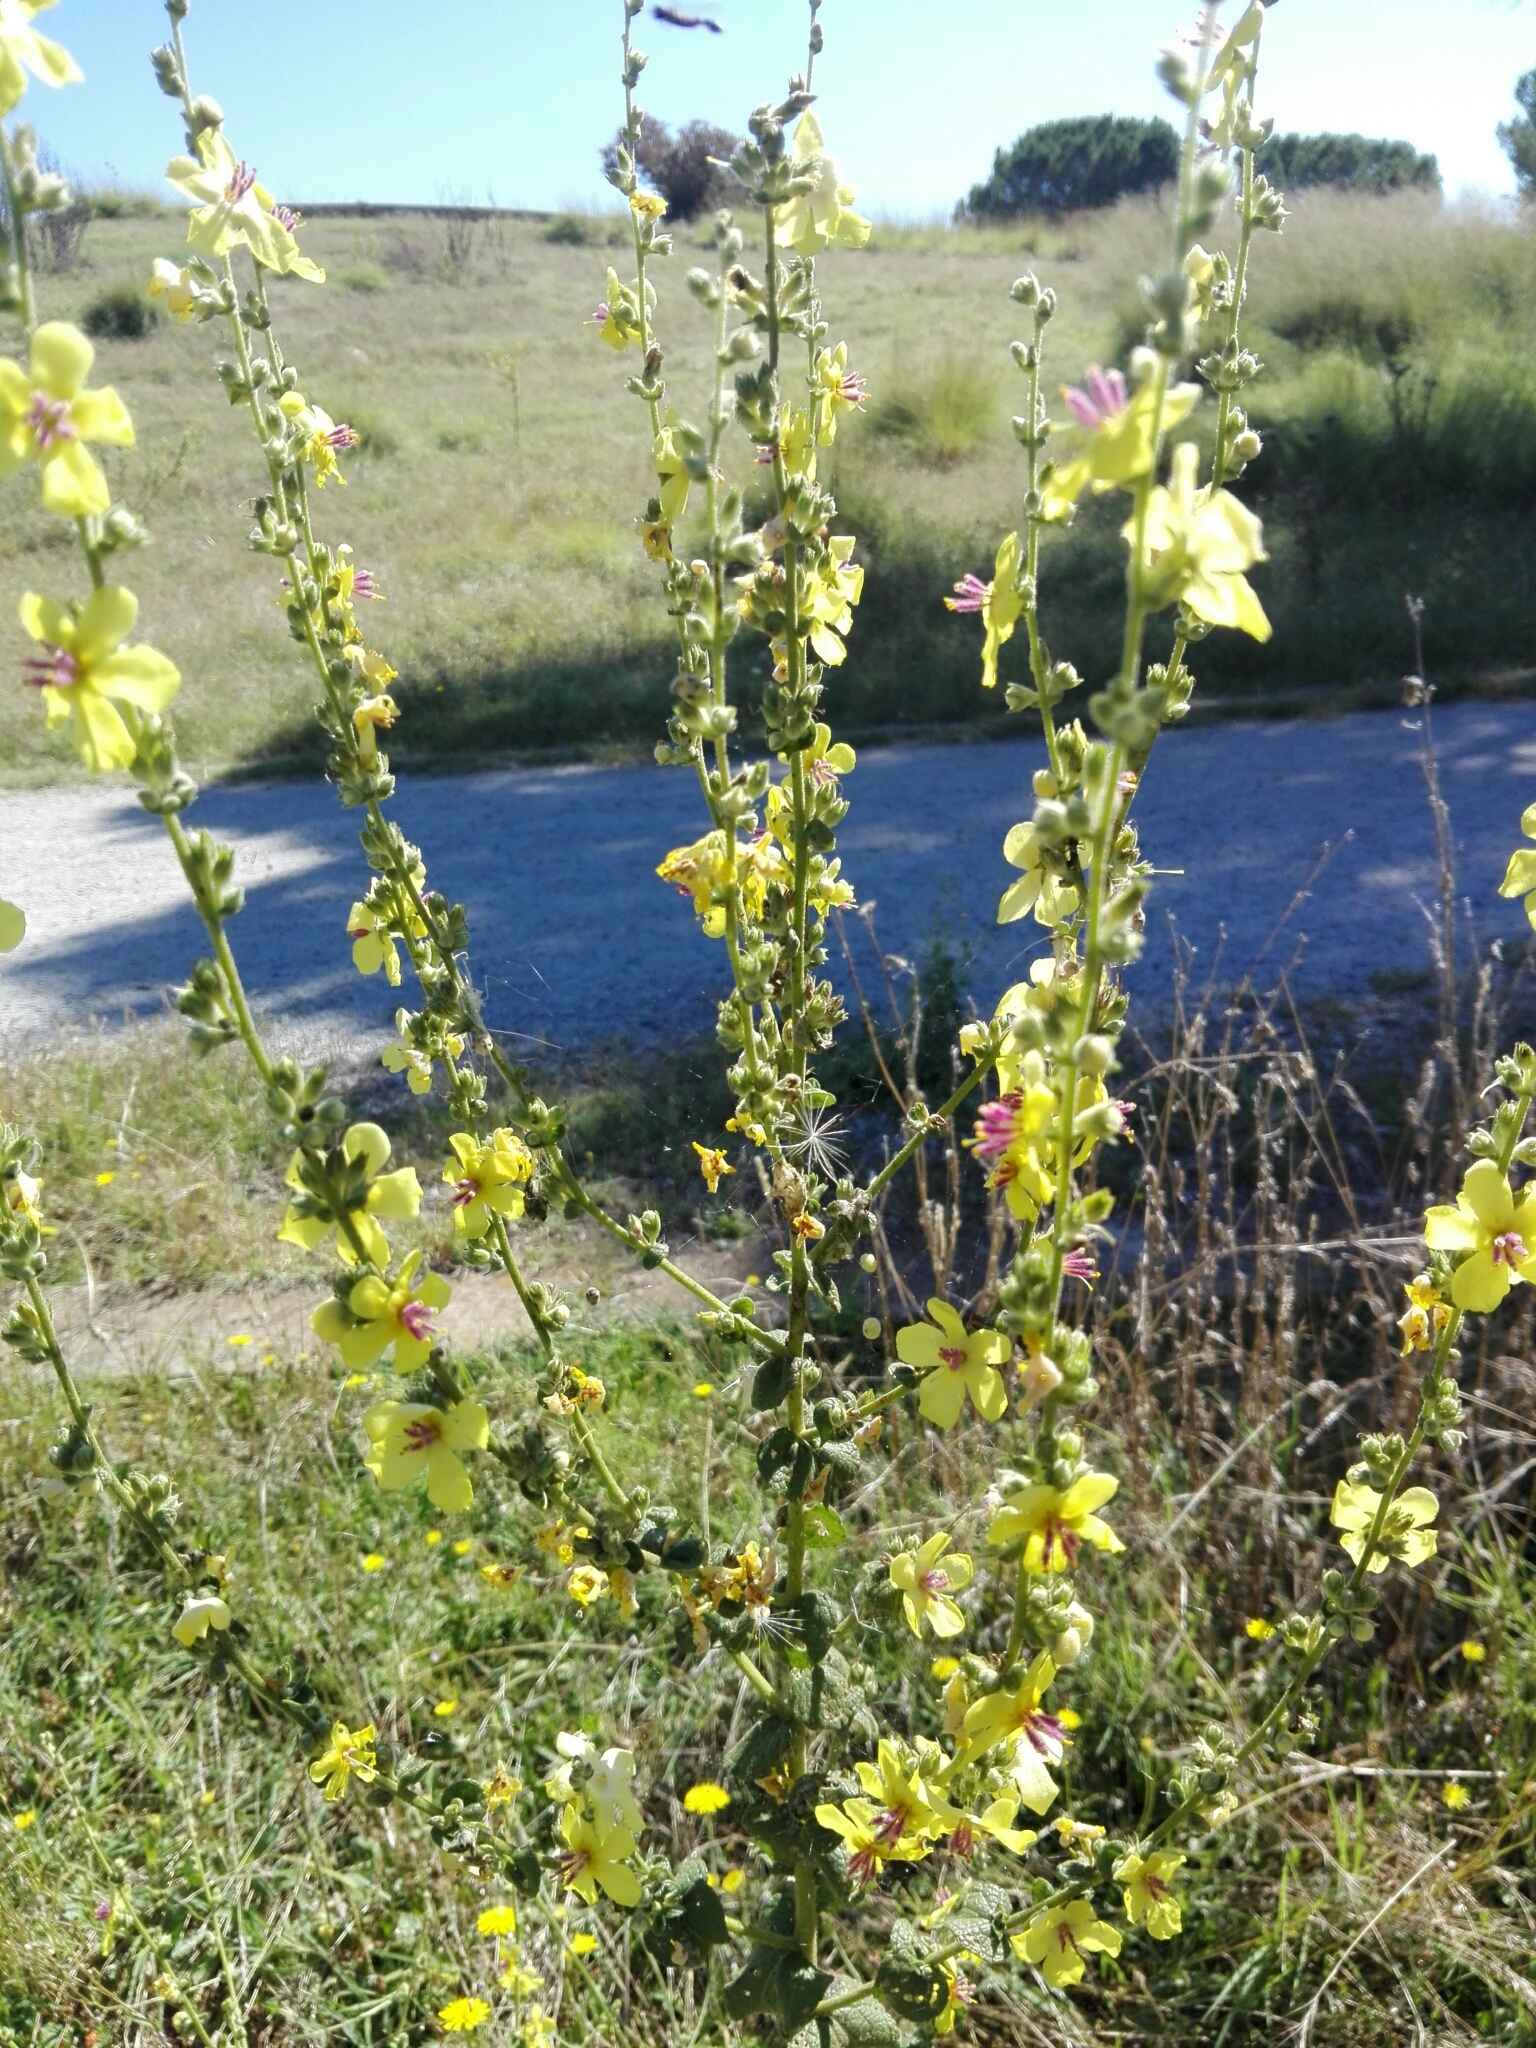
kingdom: Plantae
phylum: Tracheophyta
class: Magnoliopsida
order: Lamiales
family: Scrophulariaceae
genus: Verbascum
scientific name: Verbascum sinuatum
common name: Wavyleaf mullein
